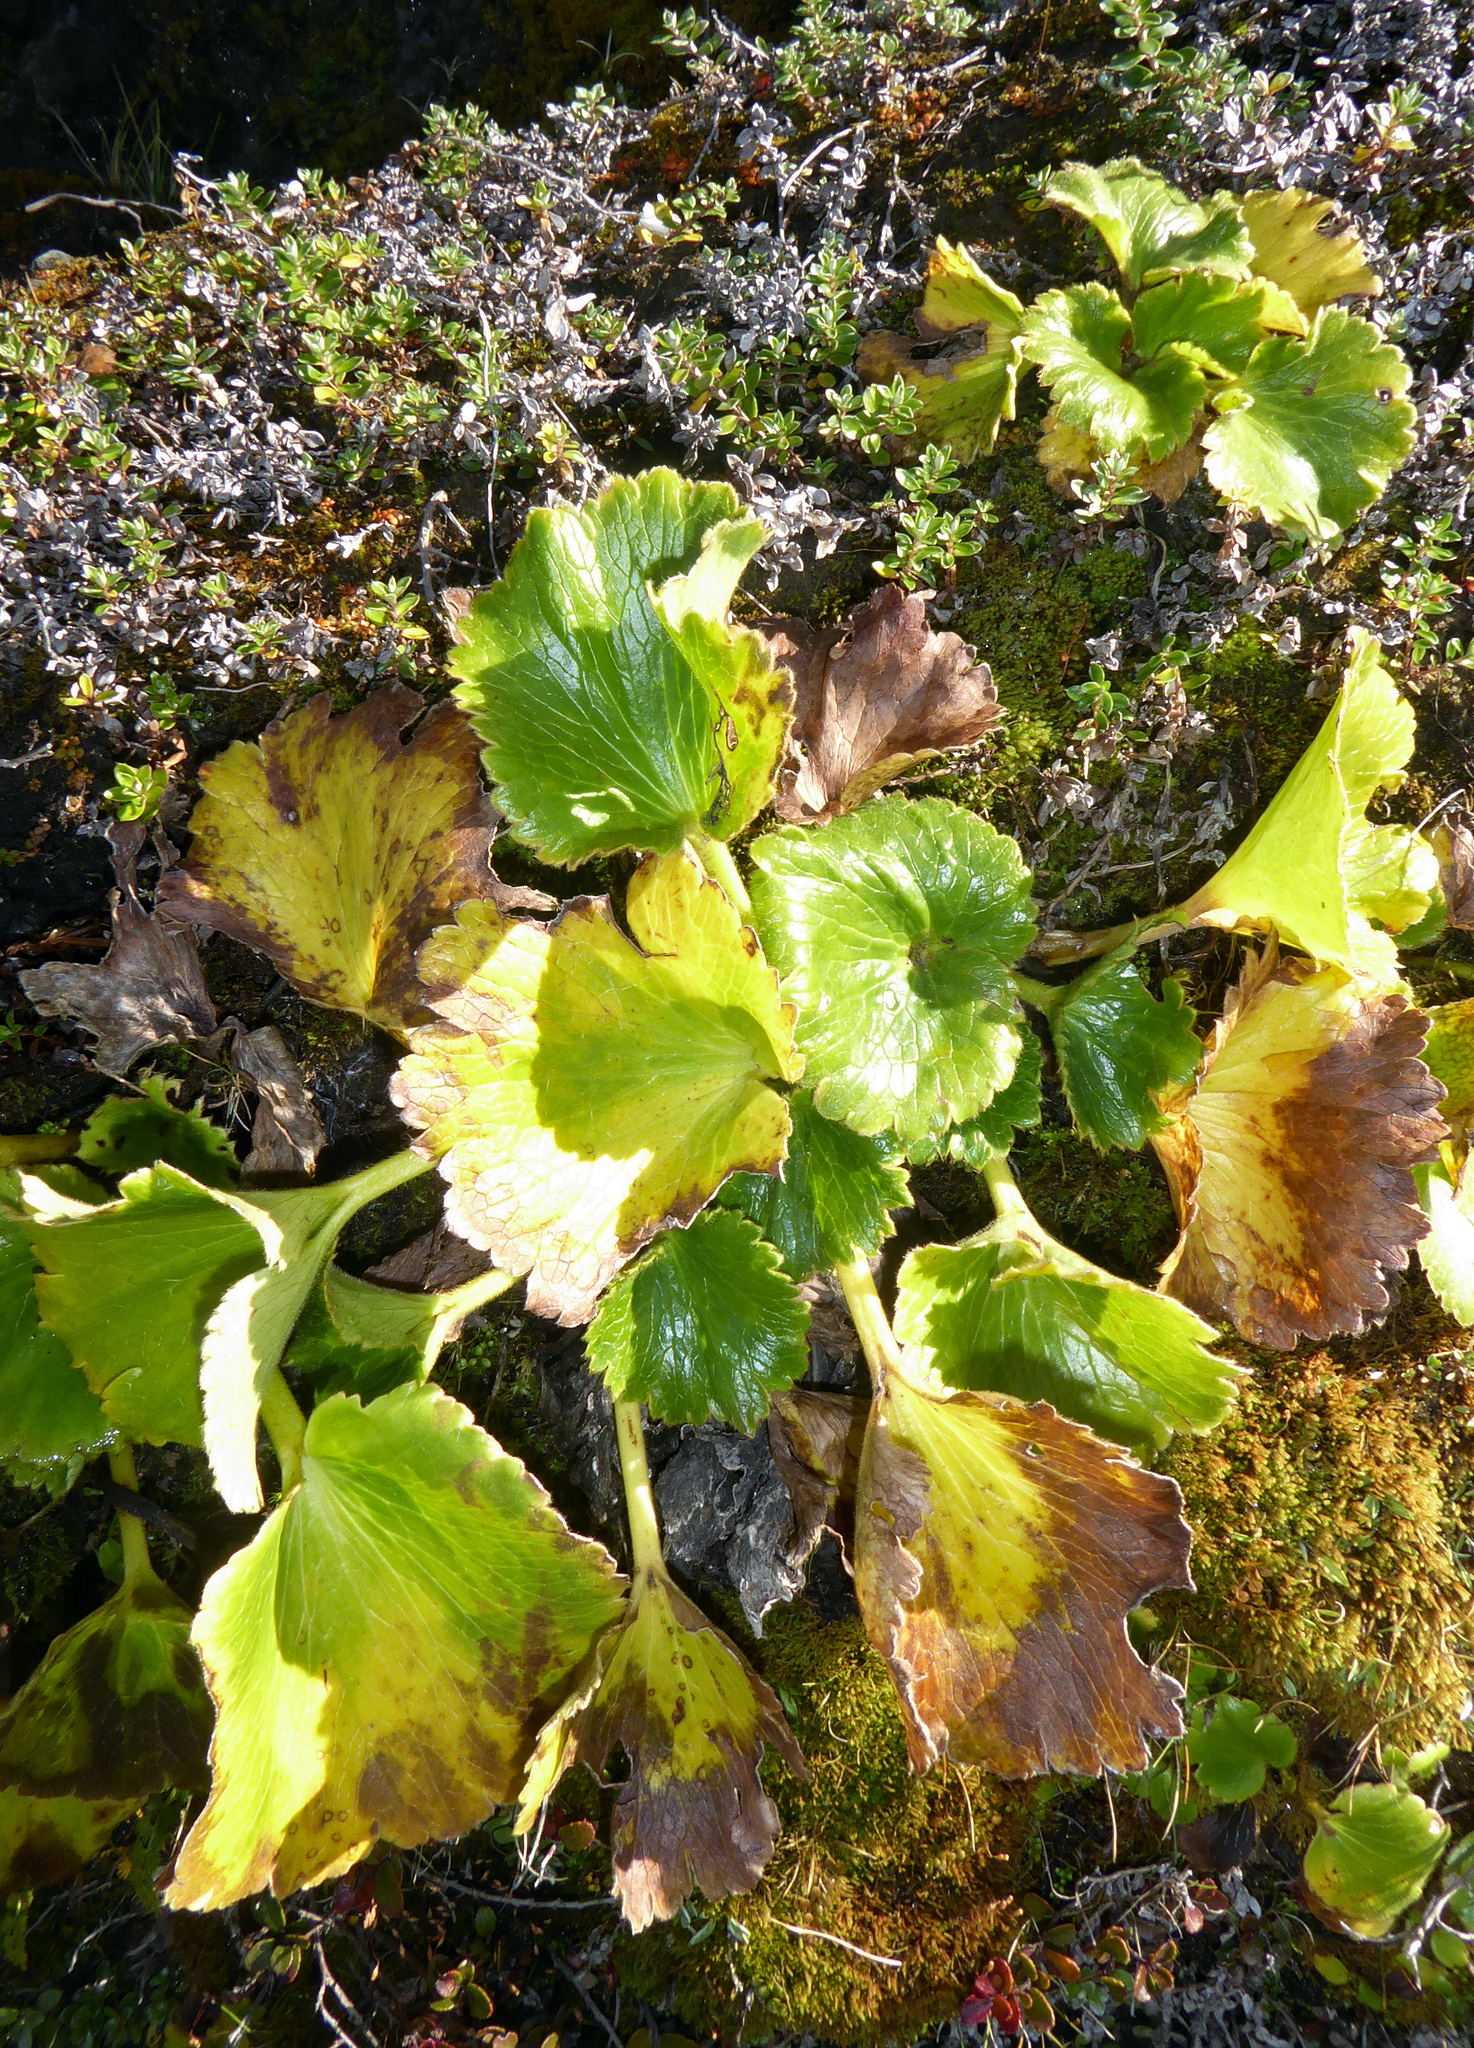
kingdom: Plantae
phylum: Tracheophyta
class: Magnoliopsida
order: Ranunculales
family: Ranunculaceae
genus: Ranunculus
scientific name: Ranunculus insignis
